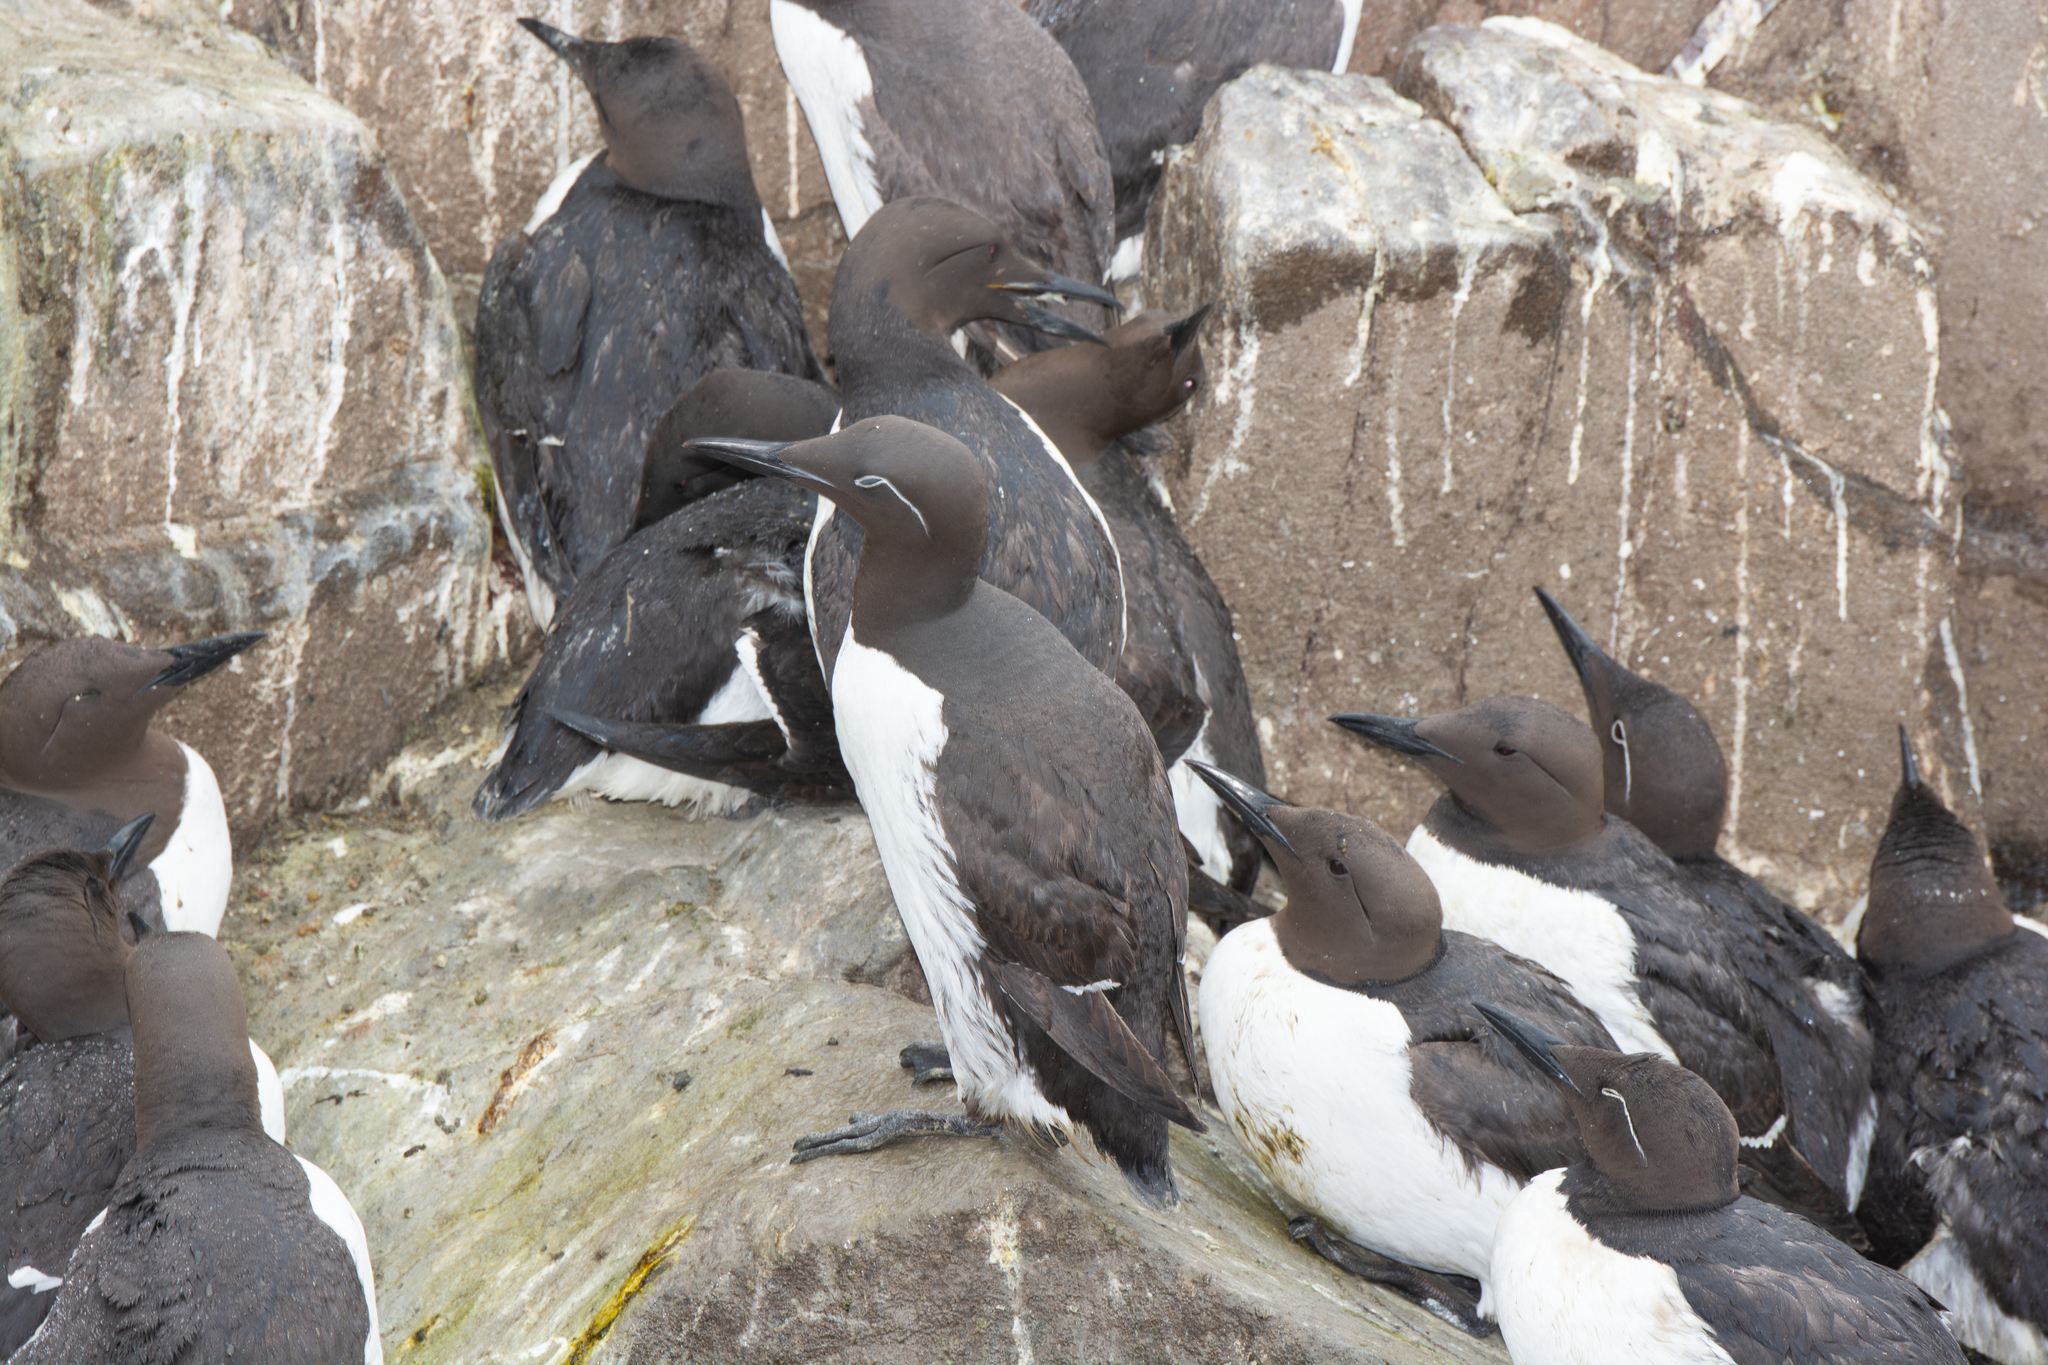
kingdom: Animalia
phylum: Chordata
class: Aves
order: Charadriiformes
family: Alcidae
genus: Uria
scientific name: Uria aalge
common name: Common murre
